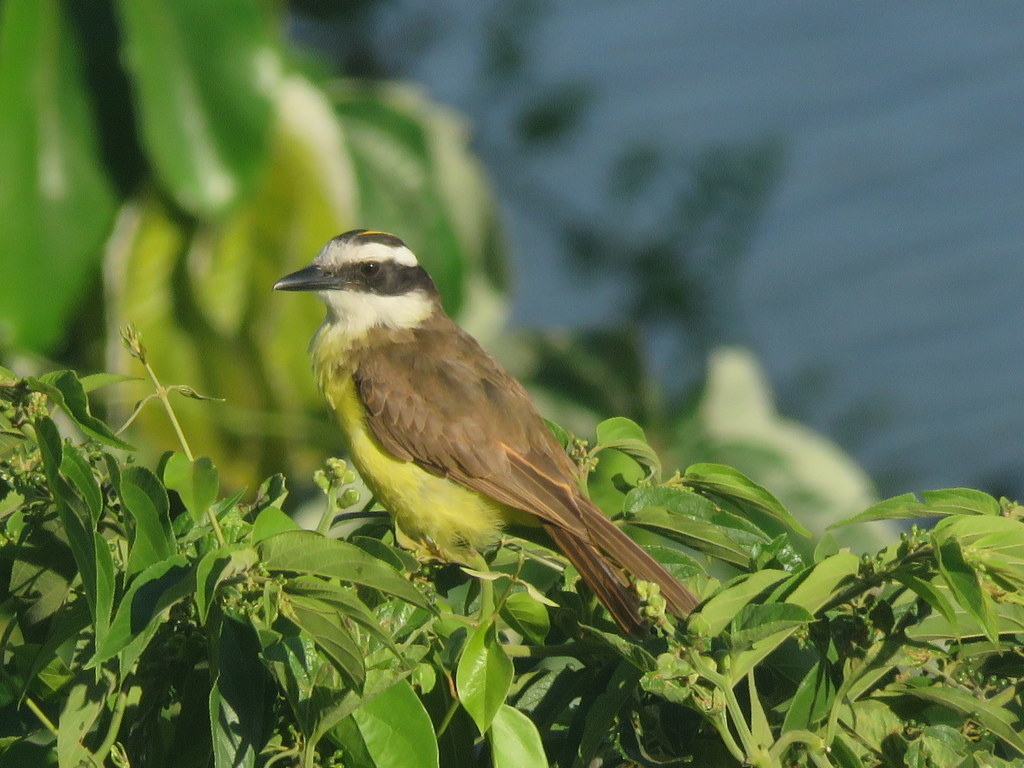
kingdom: Animalia
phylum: Chordata
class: Aves
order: Passeriformes
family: Tyrannidae
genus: Pitangus
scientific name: Pitangus sulphuratus
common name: Great kiskadee
